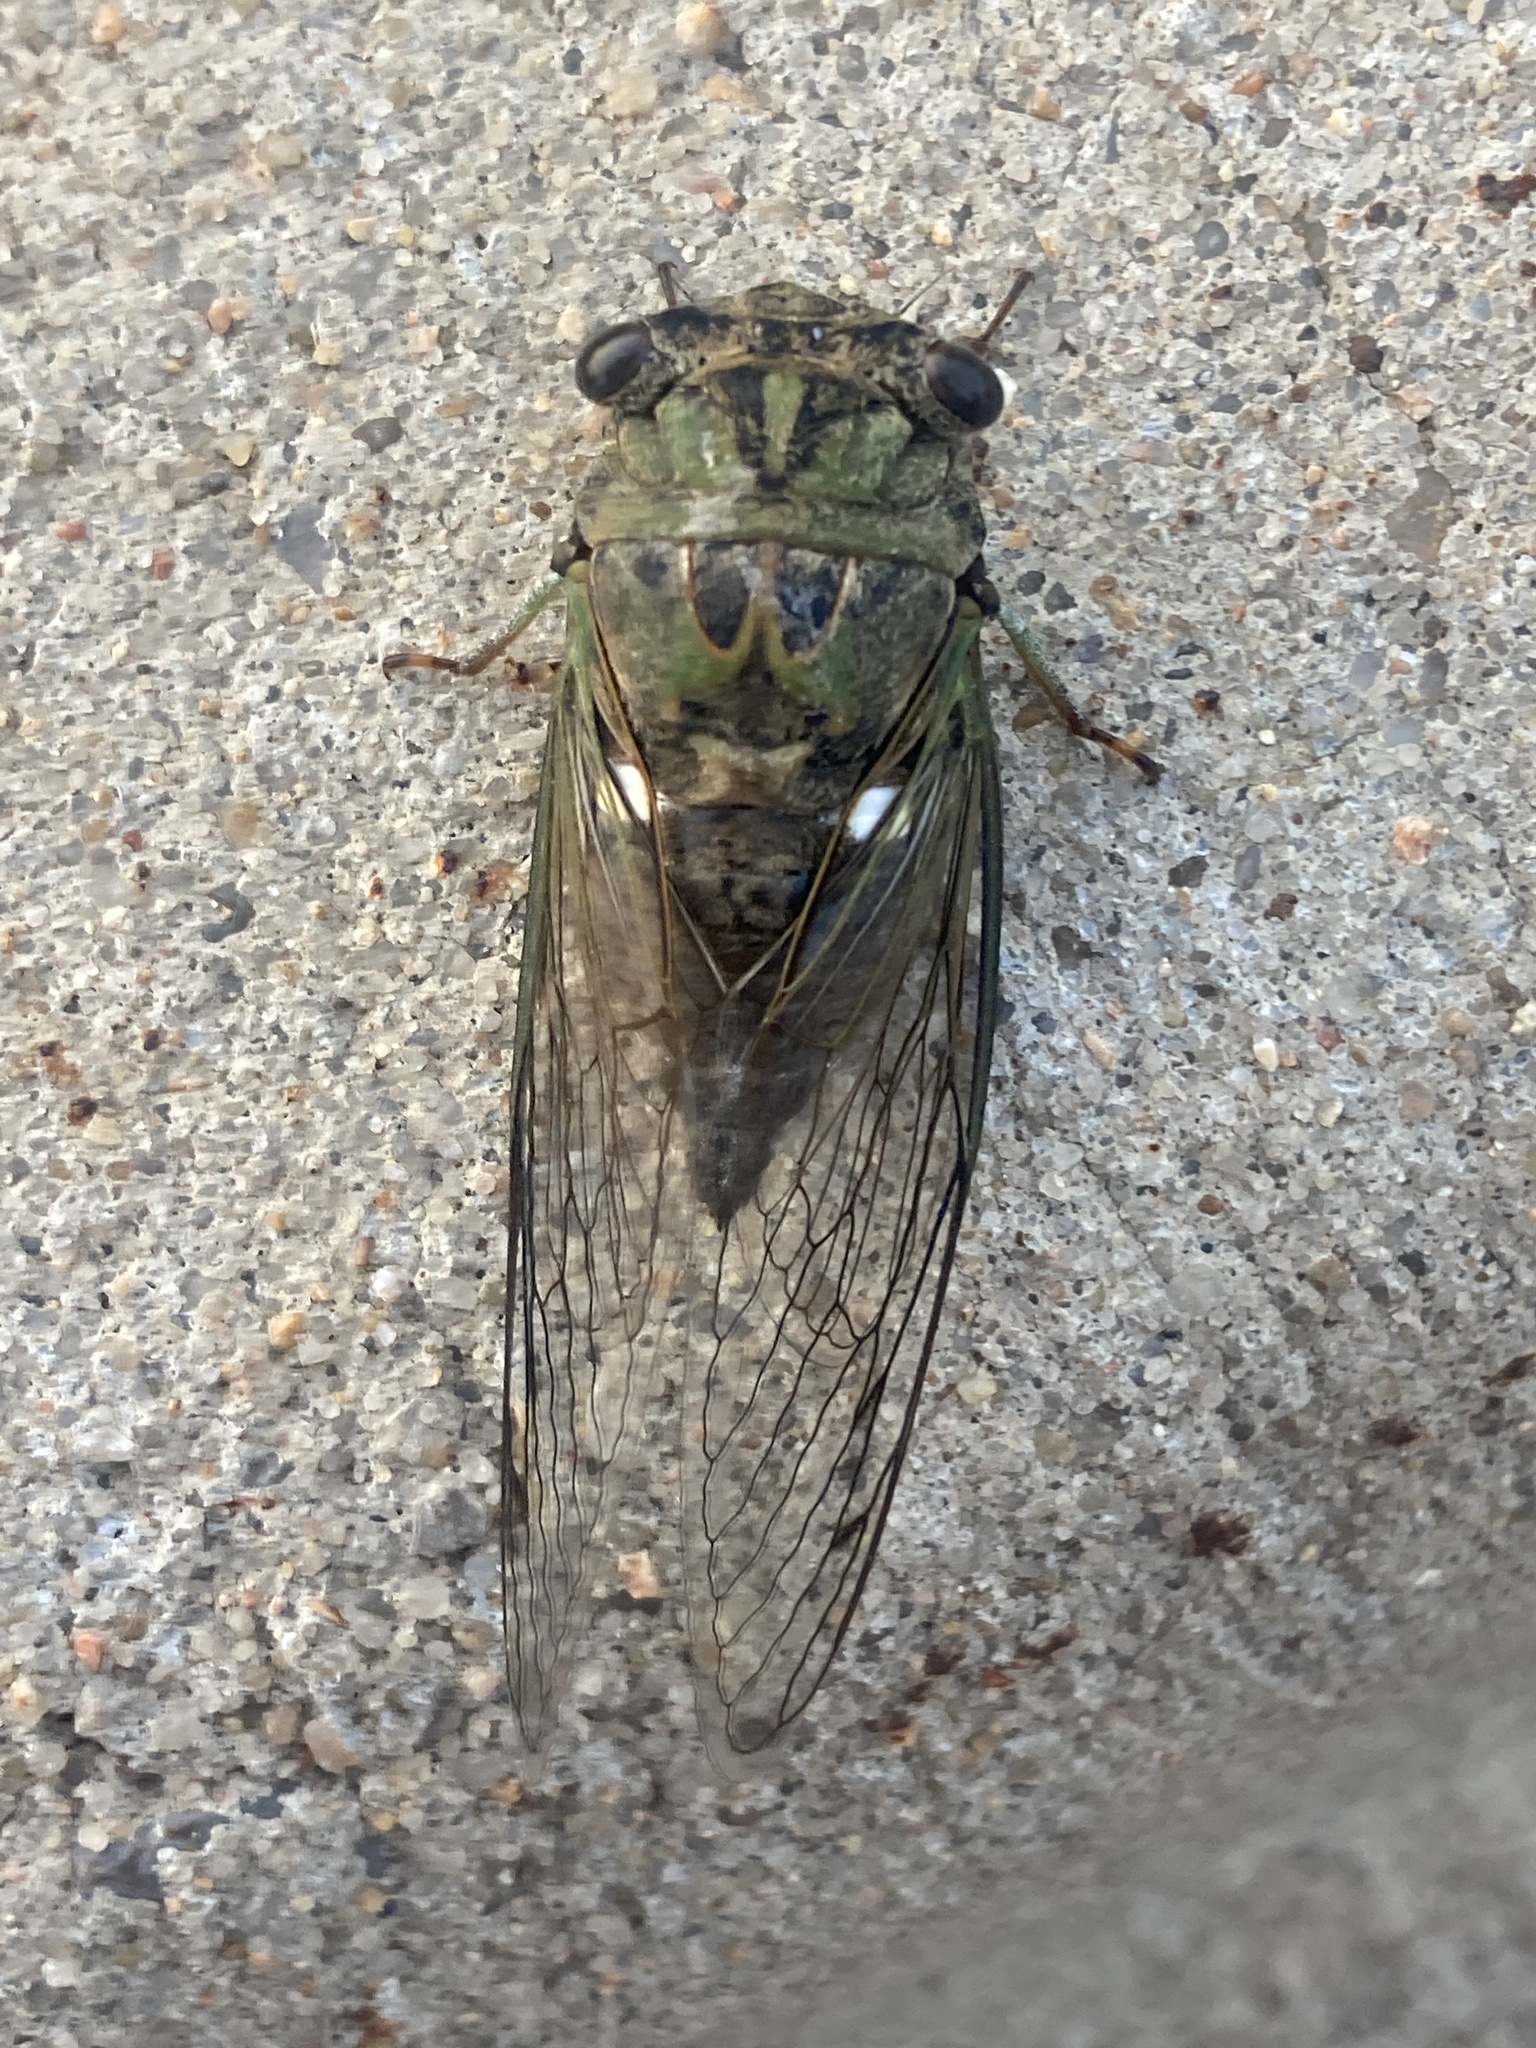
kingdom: Animalia
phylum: Arthropoda
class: Insecta
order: Hemiptera
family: Cicadidae
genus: Neotibicen
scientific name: Neotibicen pruinosus
